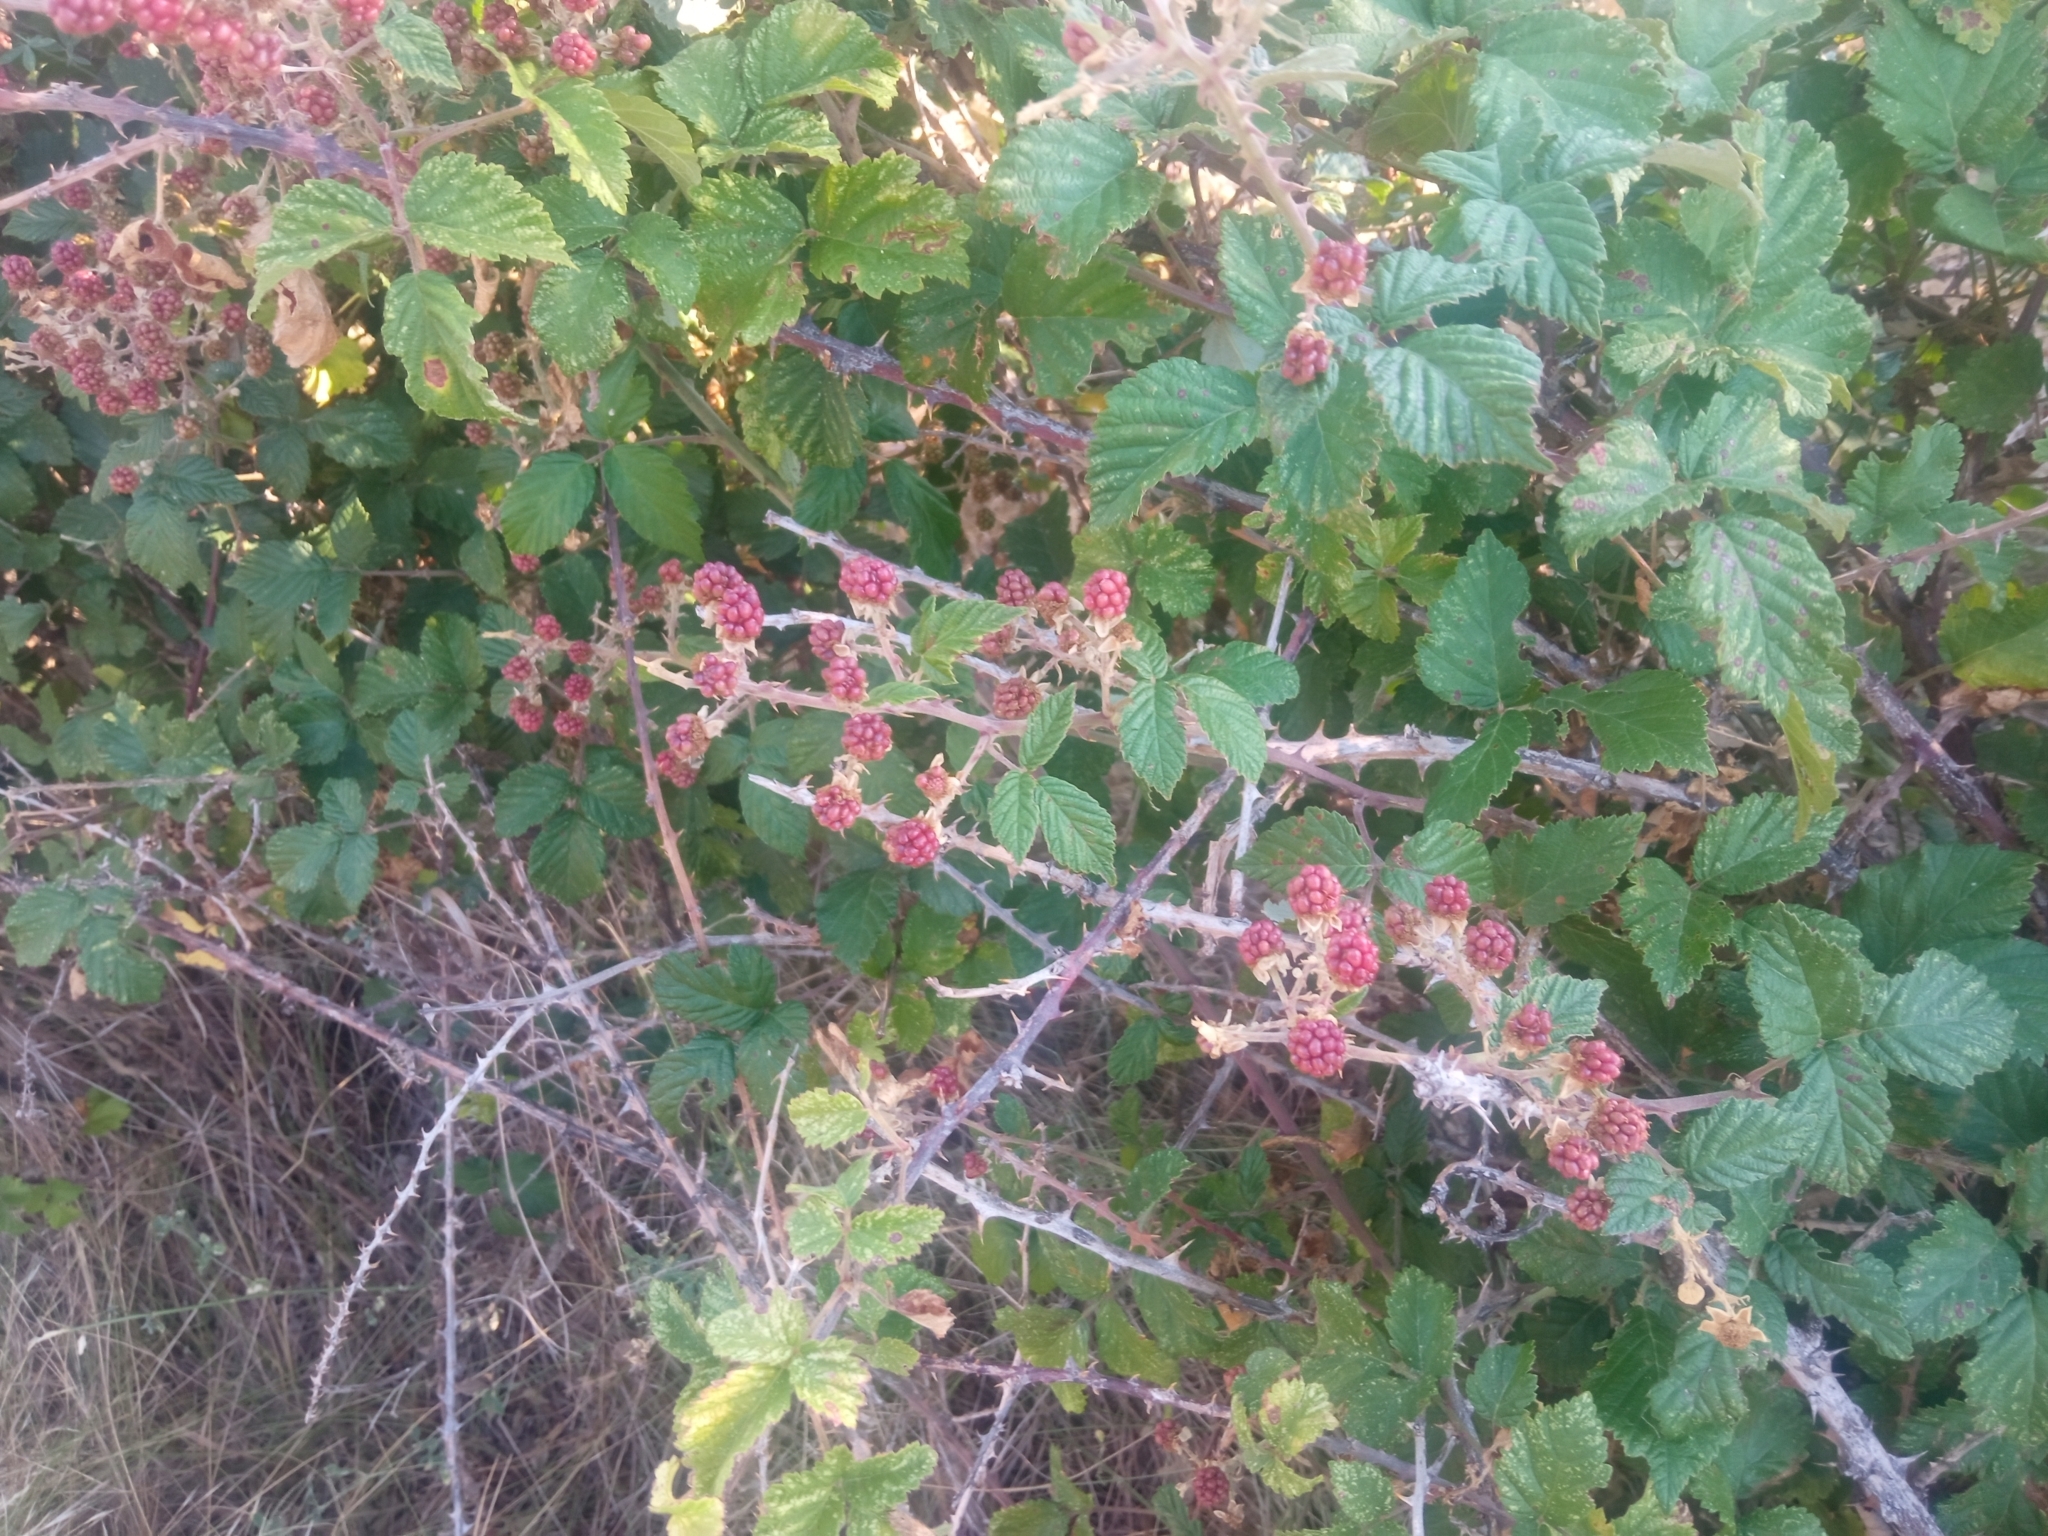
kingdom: Plantae
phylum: Tracheophyta
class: Magnoliopsida
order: Rosales
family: Rosaceae
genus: Rubus
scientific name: Rubus ulmifolius
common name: Elmleaf blackberry
